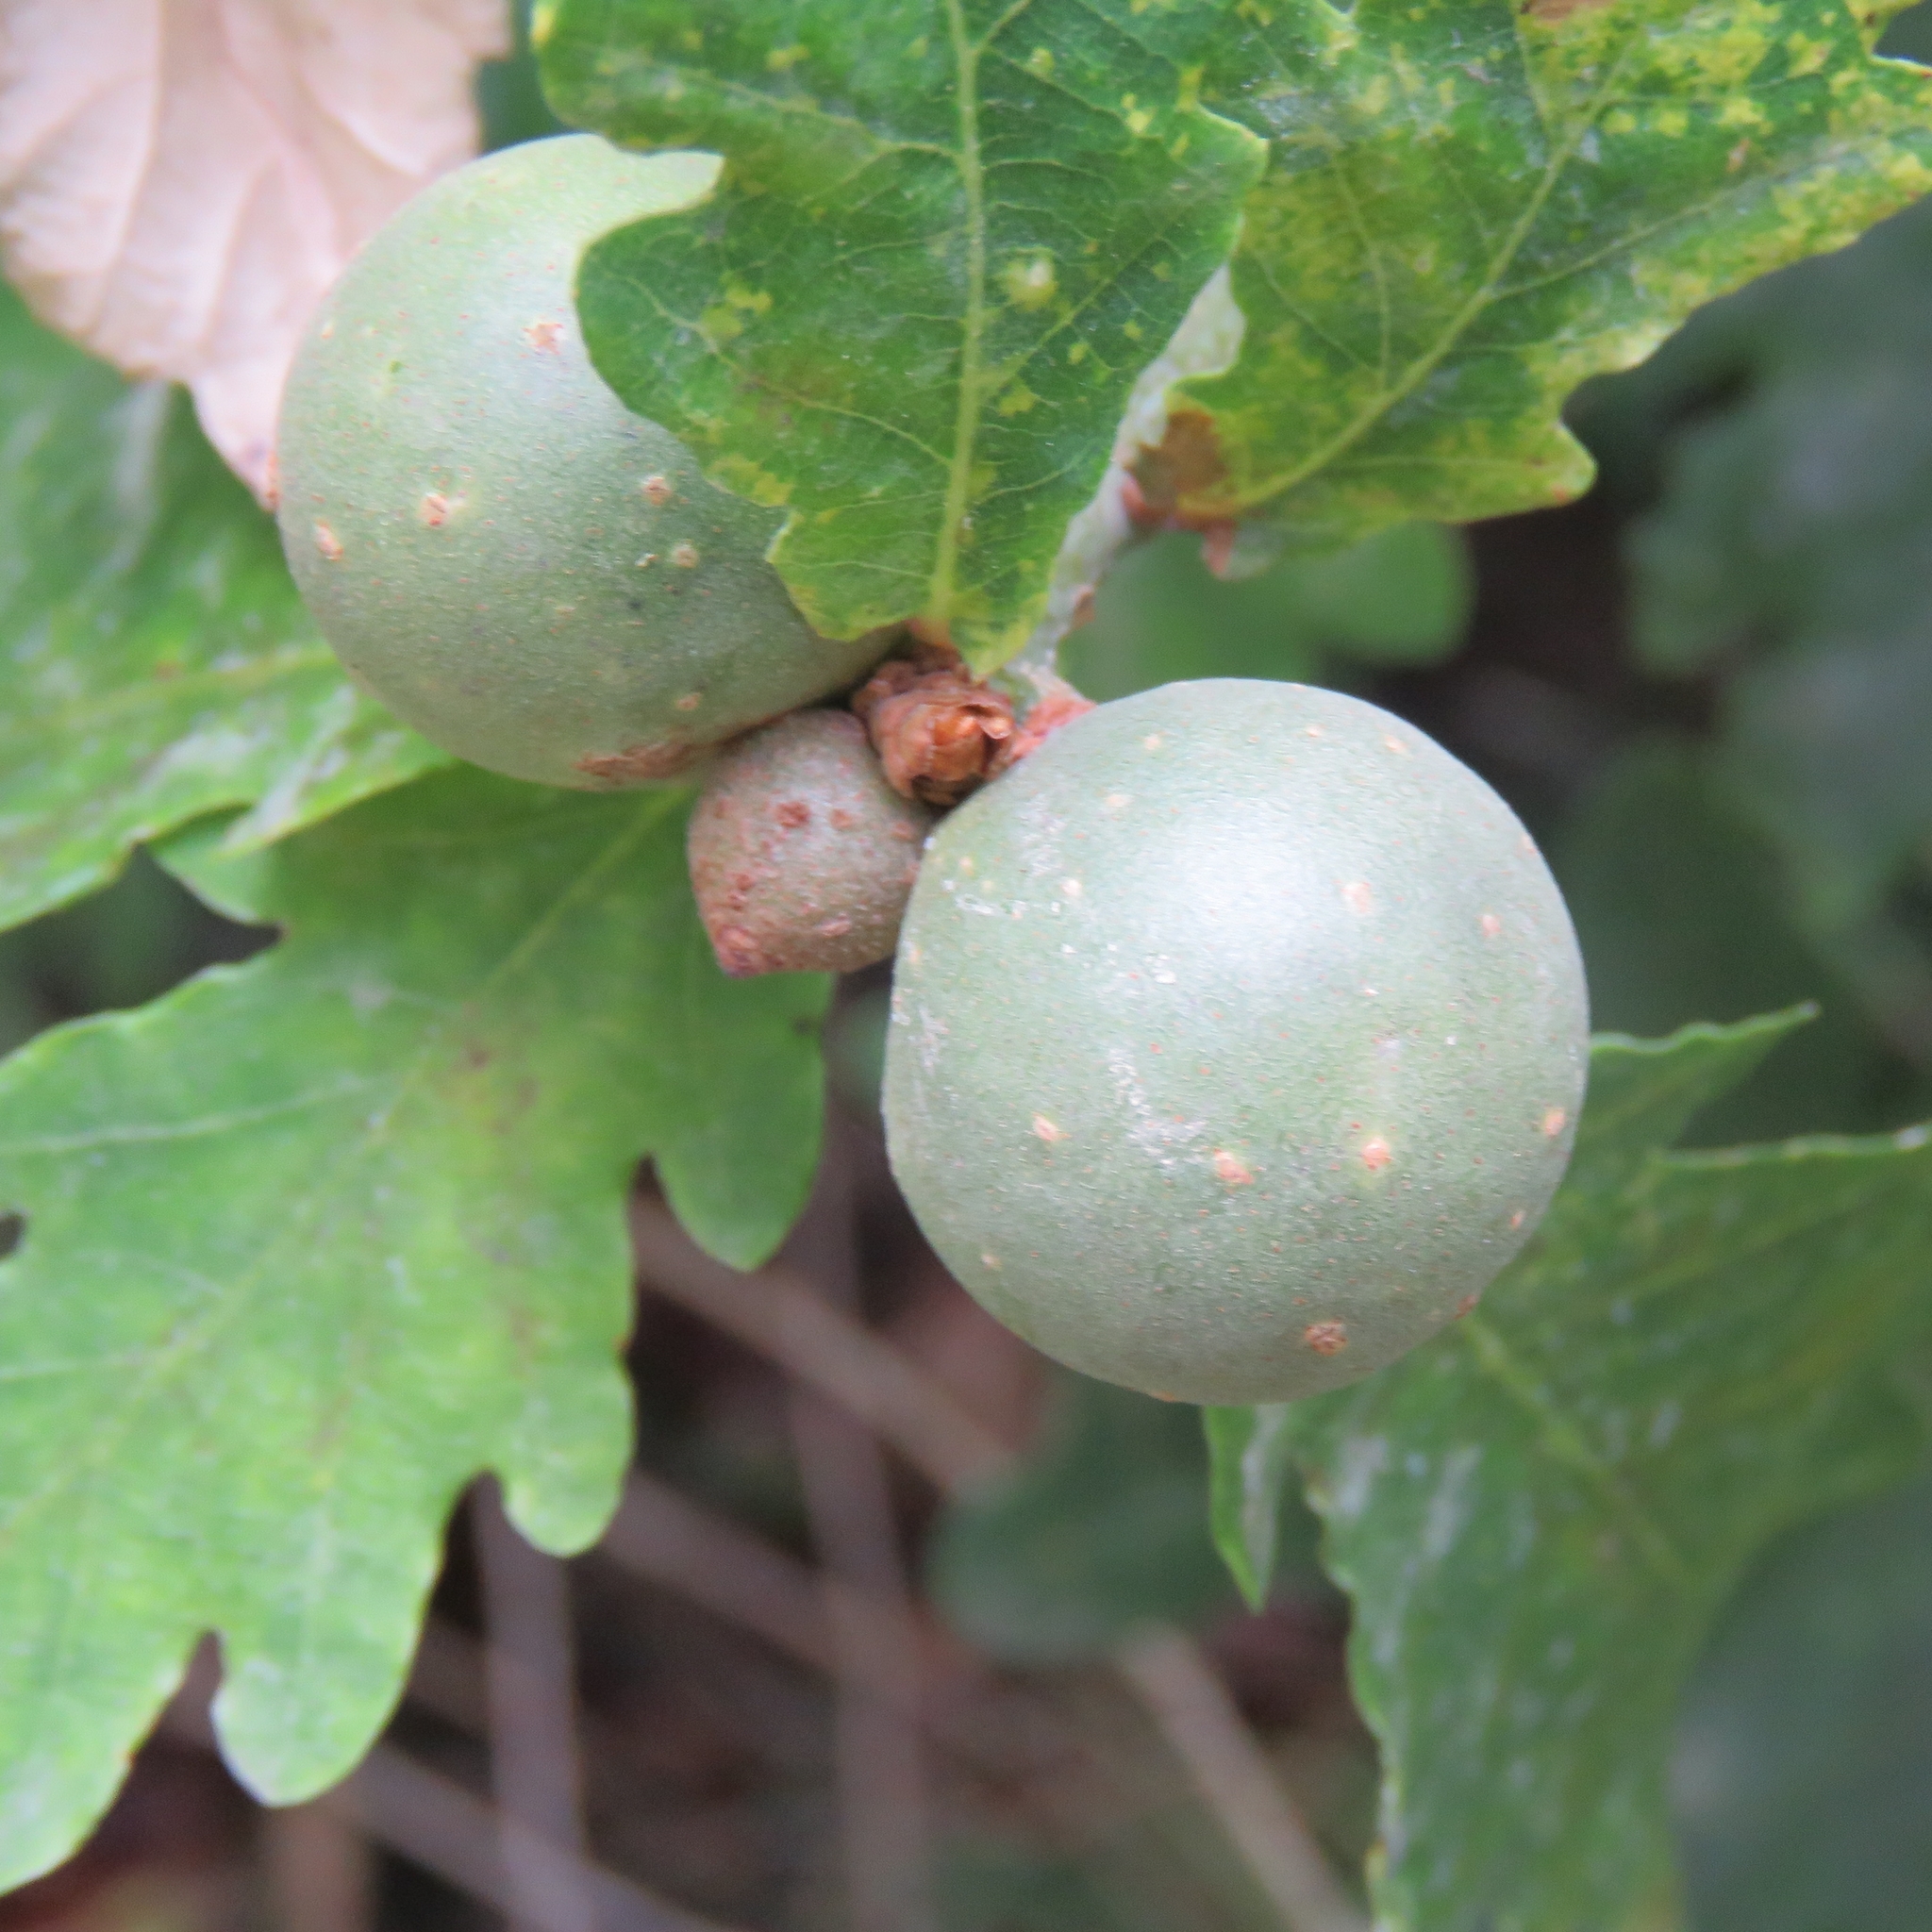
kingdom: Animalia
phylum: Arthropoda
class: Insecta
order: Hymenoptera
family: Cynipidae
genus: Andricus
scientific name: Andricus kollari
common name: Marble gall
